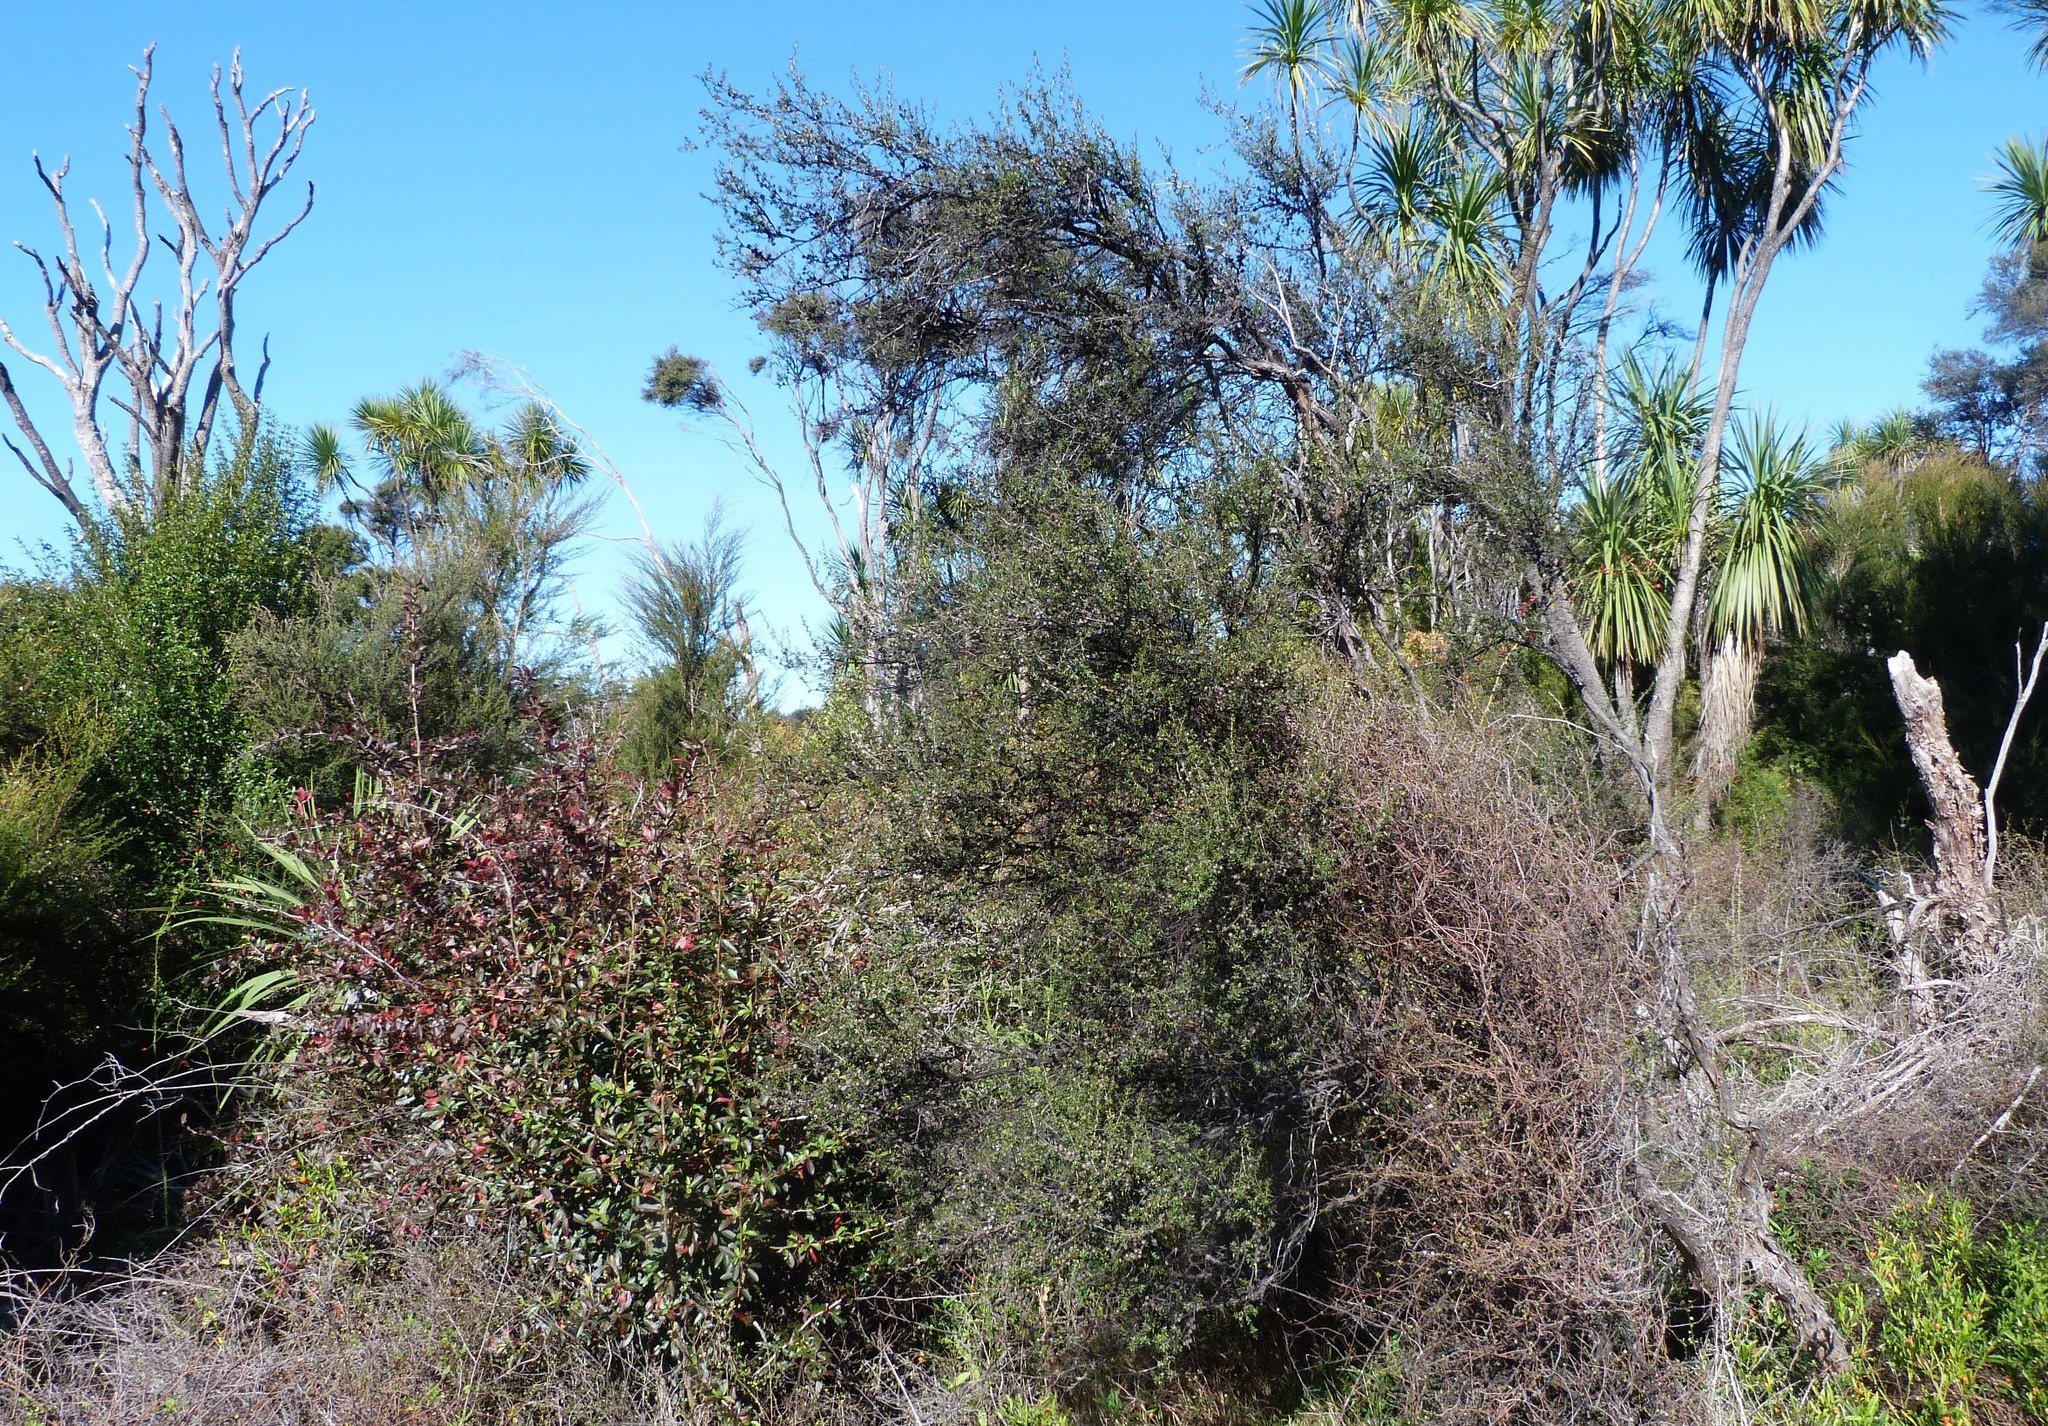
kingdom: Plantae
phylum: Tracheophyta
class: Magnoliopsida
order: Myrtales
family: Myrtaceae
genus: Leptospermum
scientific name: Leptospermum scoparium
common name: Broom tea-tree
